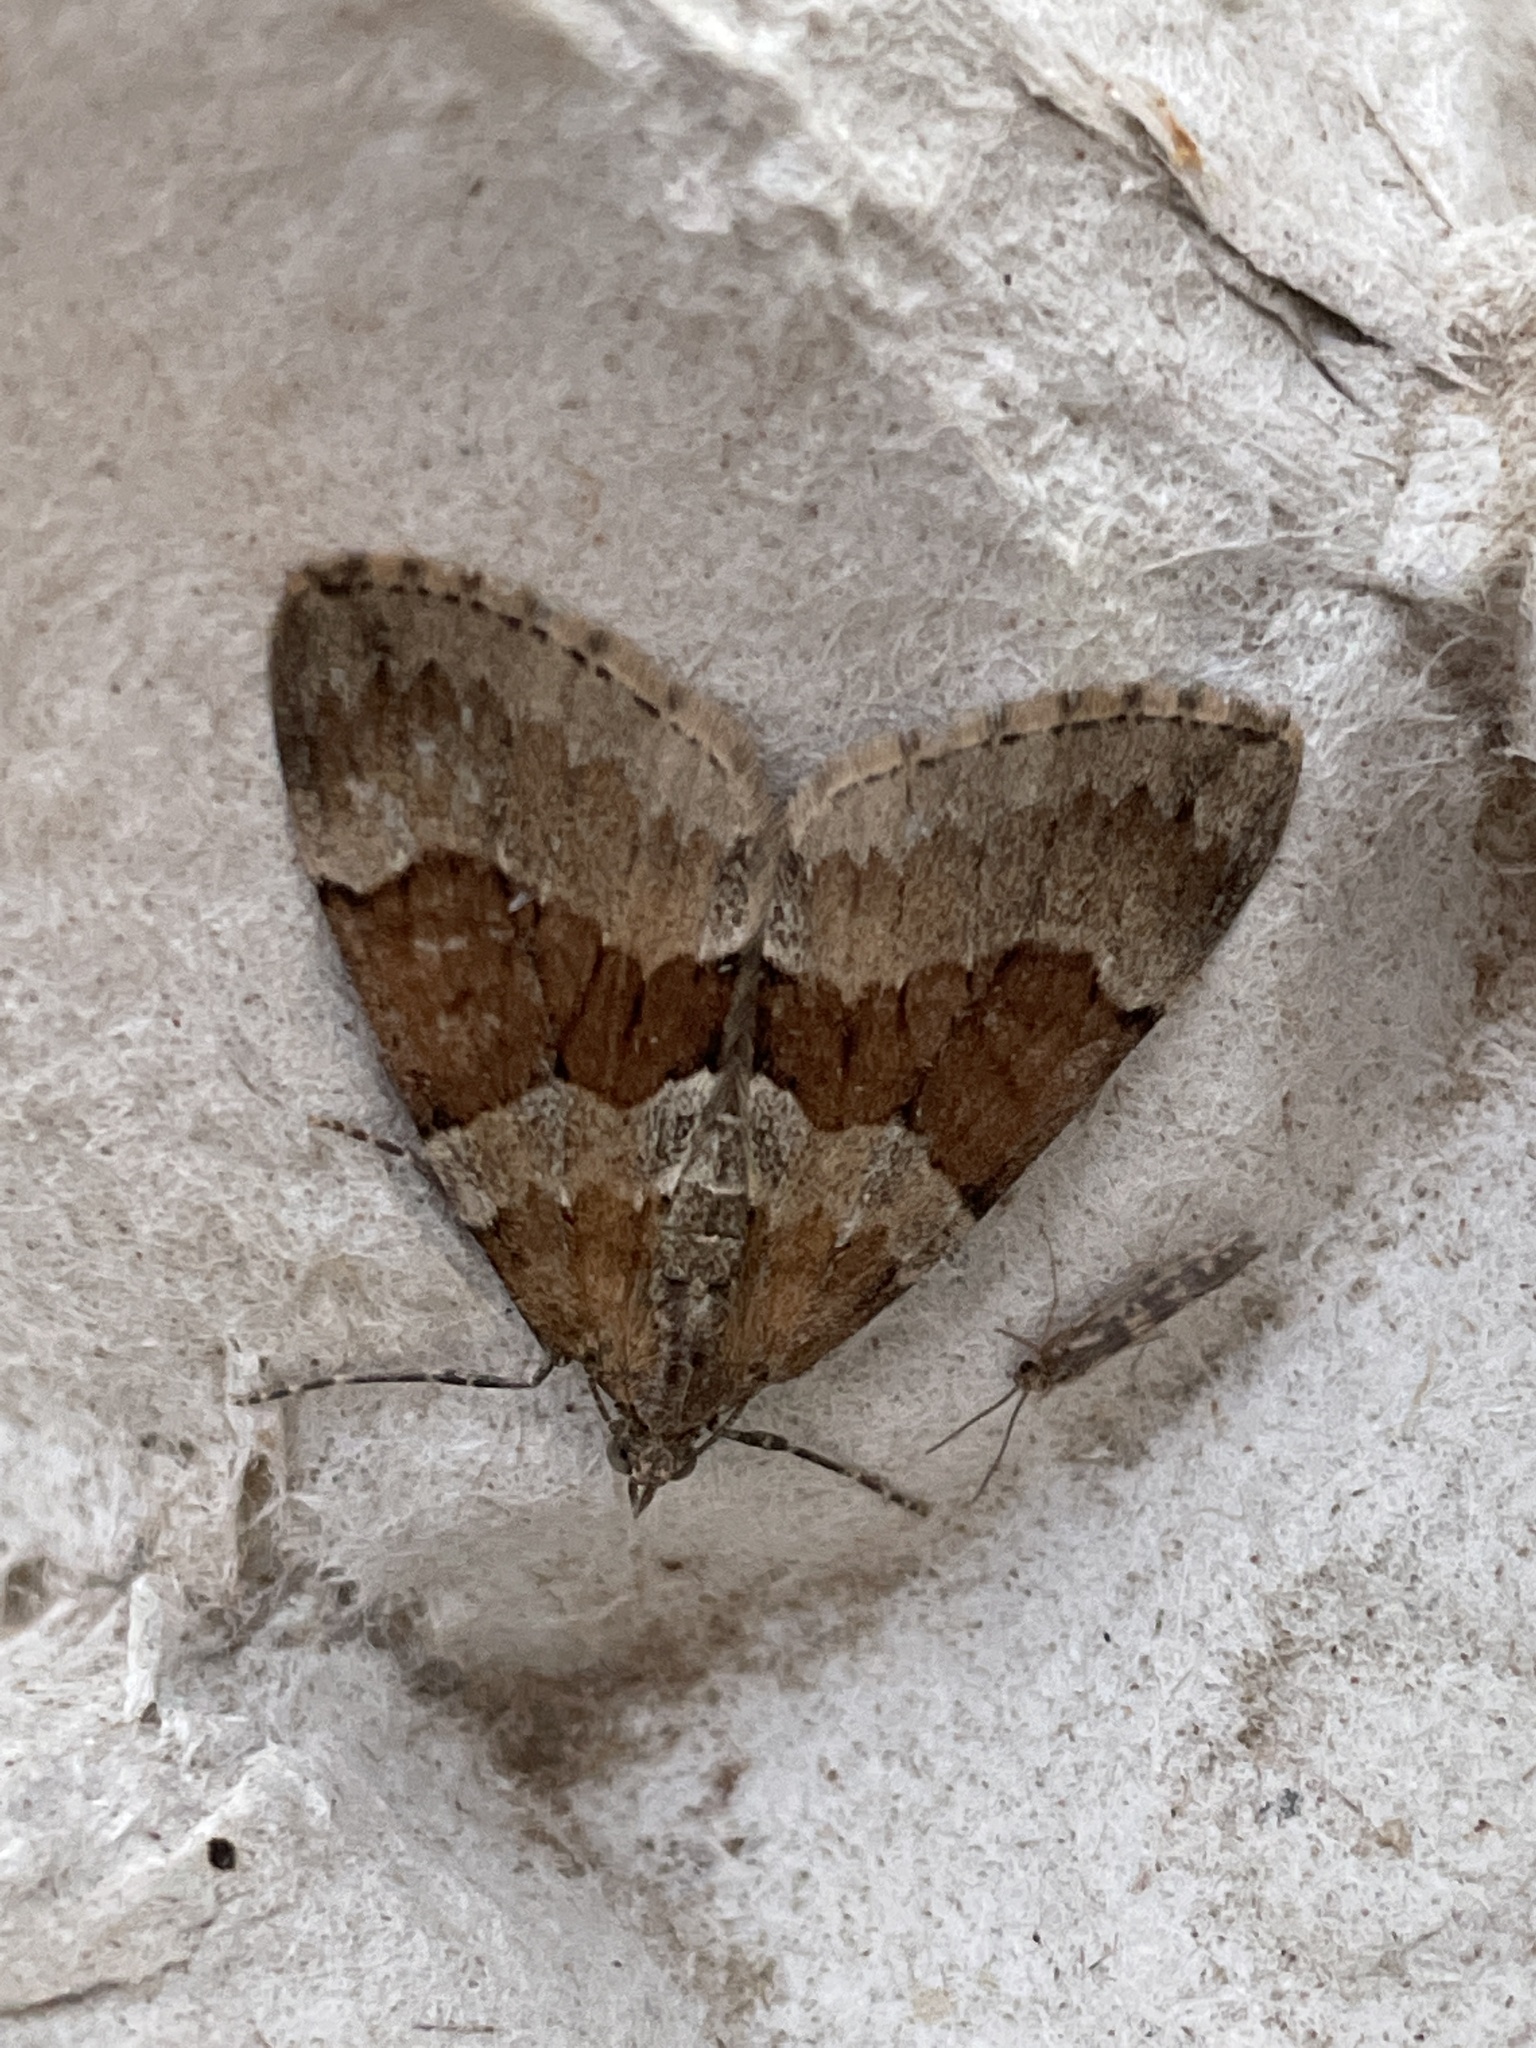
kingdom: Animalia
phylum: Arthropoda
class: Insecta
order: Lepidoptera
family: Geometridae
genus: Thera
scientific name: Thera obeliscata
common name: Grey pine carpet
